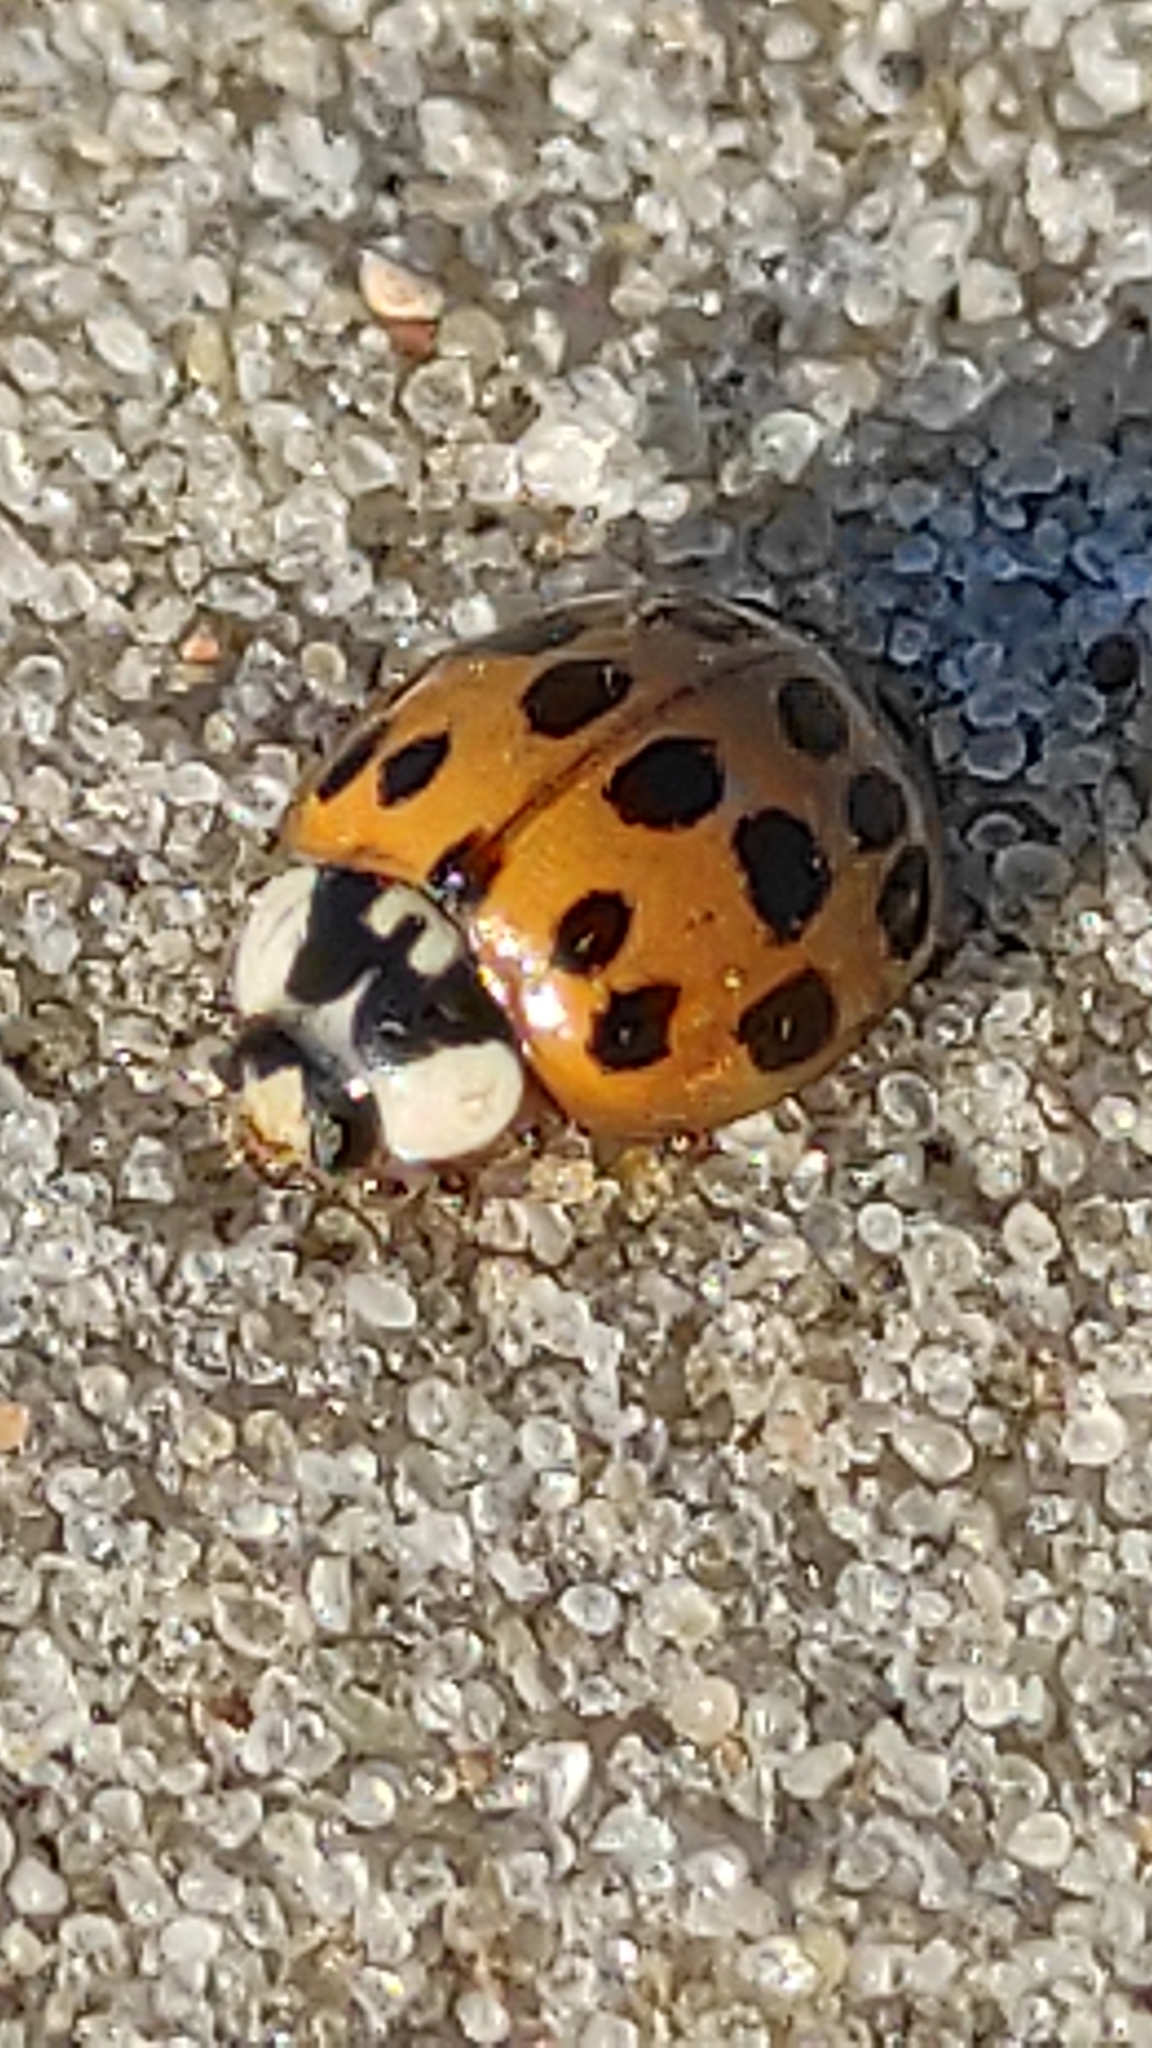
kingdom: Animalia
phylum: Arthropoda
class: Insecta
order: Coleoptera
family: Coccinellidae
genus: Harmonia
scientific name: Harmonia axyridis
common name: Harlequin ladybird
